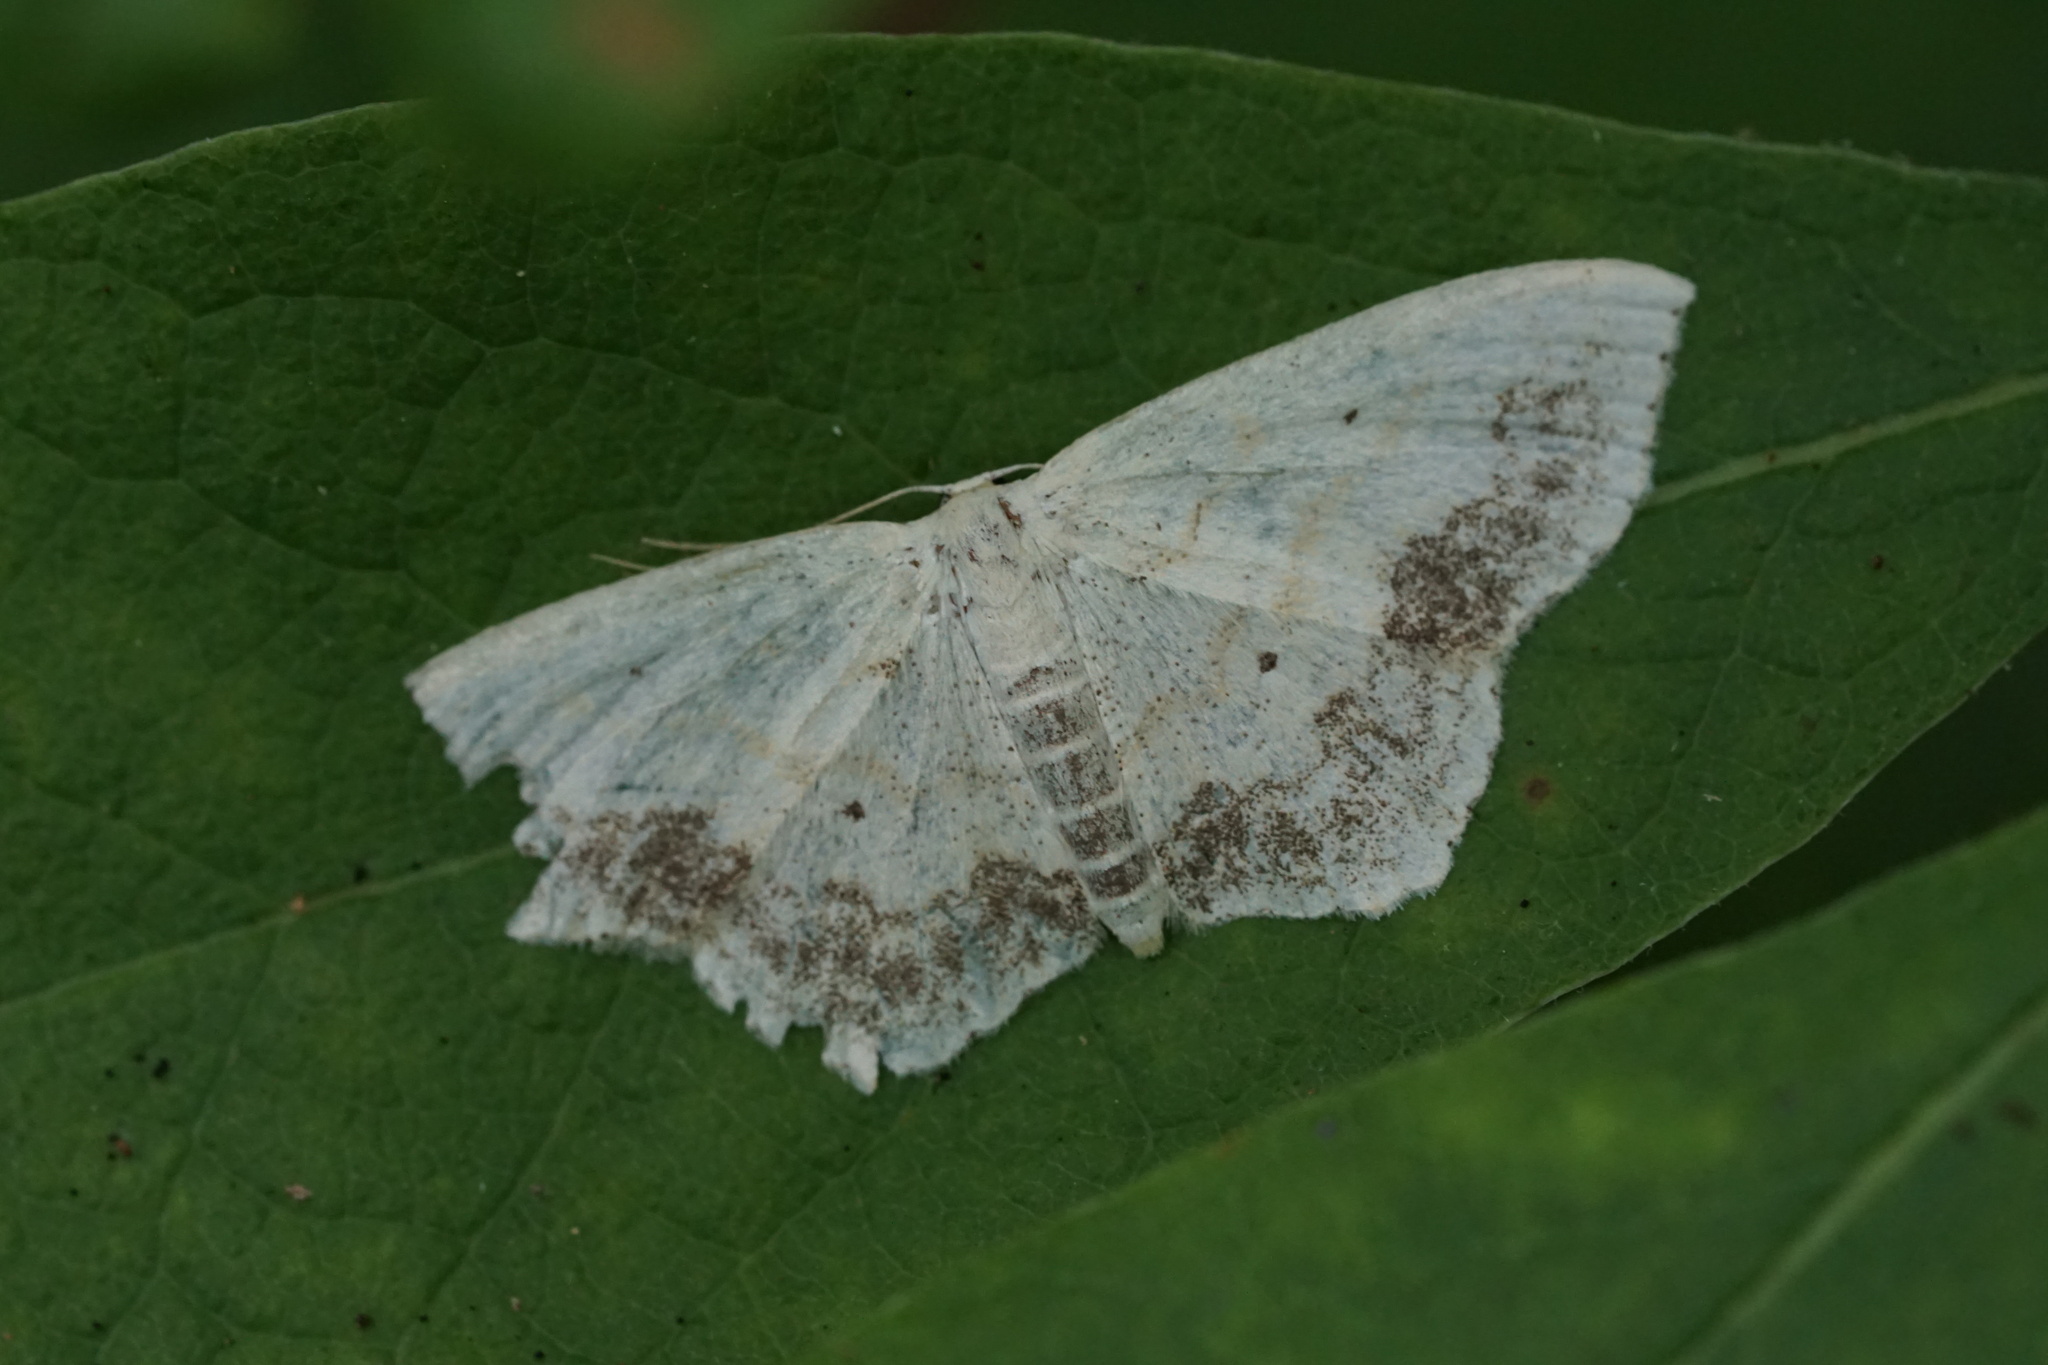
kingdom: Animalia
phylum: Arthropoda
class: Insecta
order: Lepidoptera
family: Geometridae
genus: Scopula
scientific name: Scopula limboundata
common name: Large lace border
